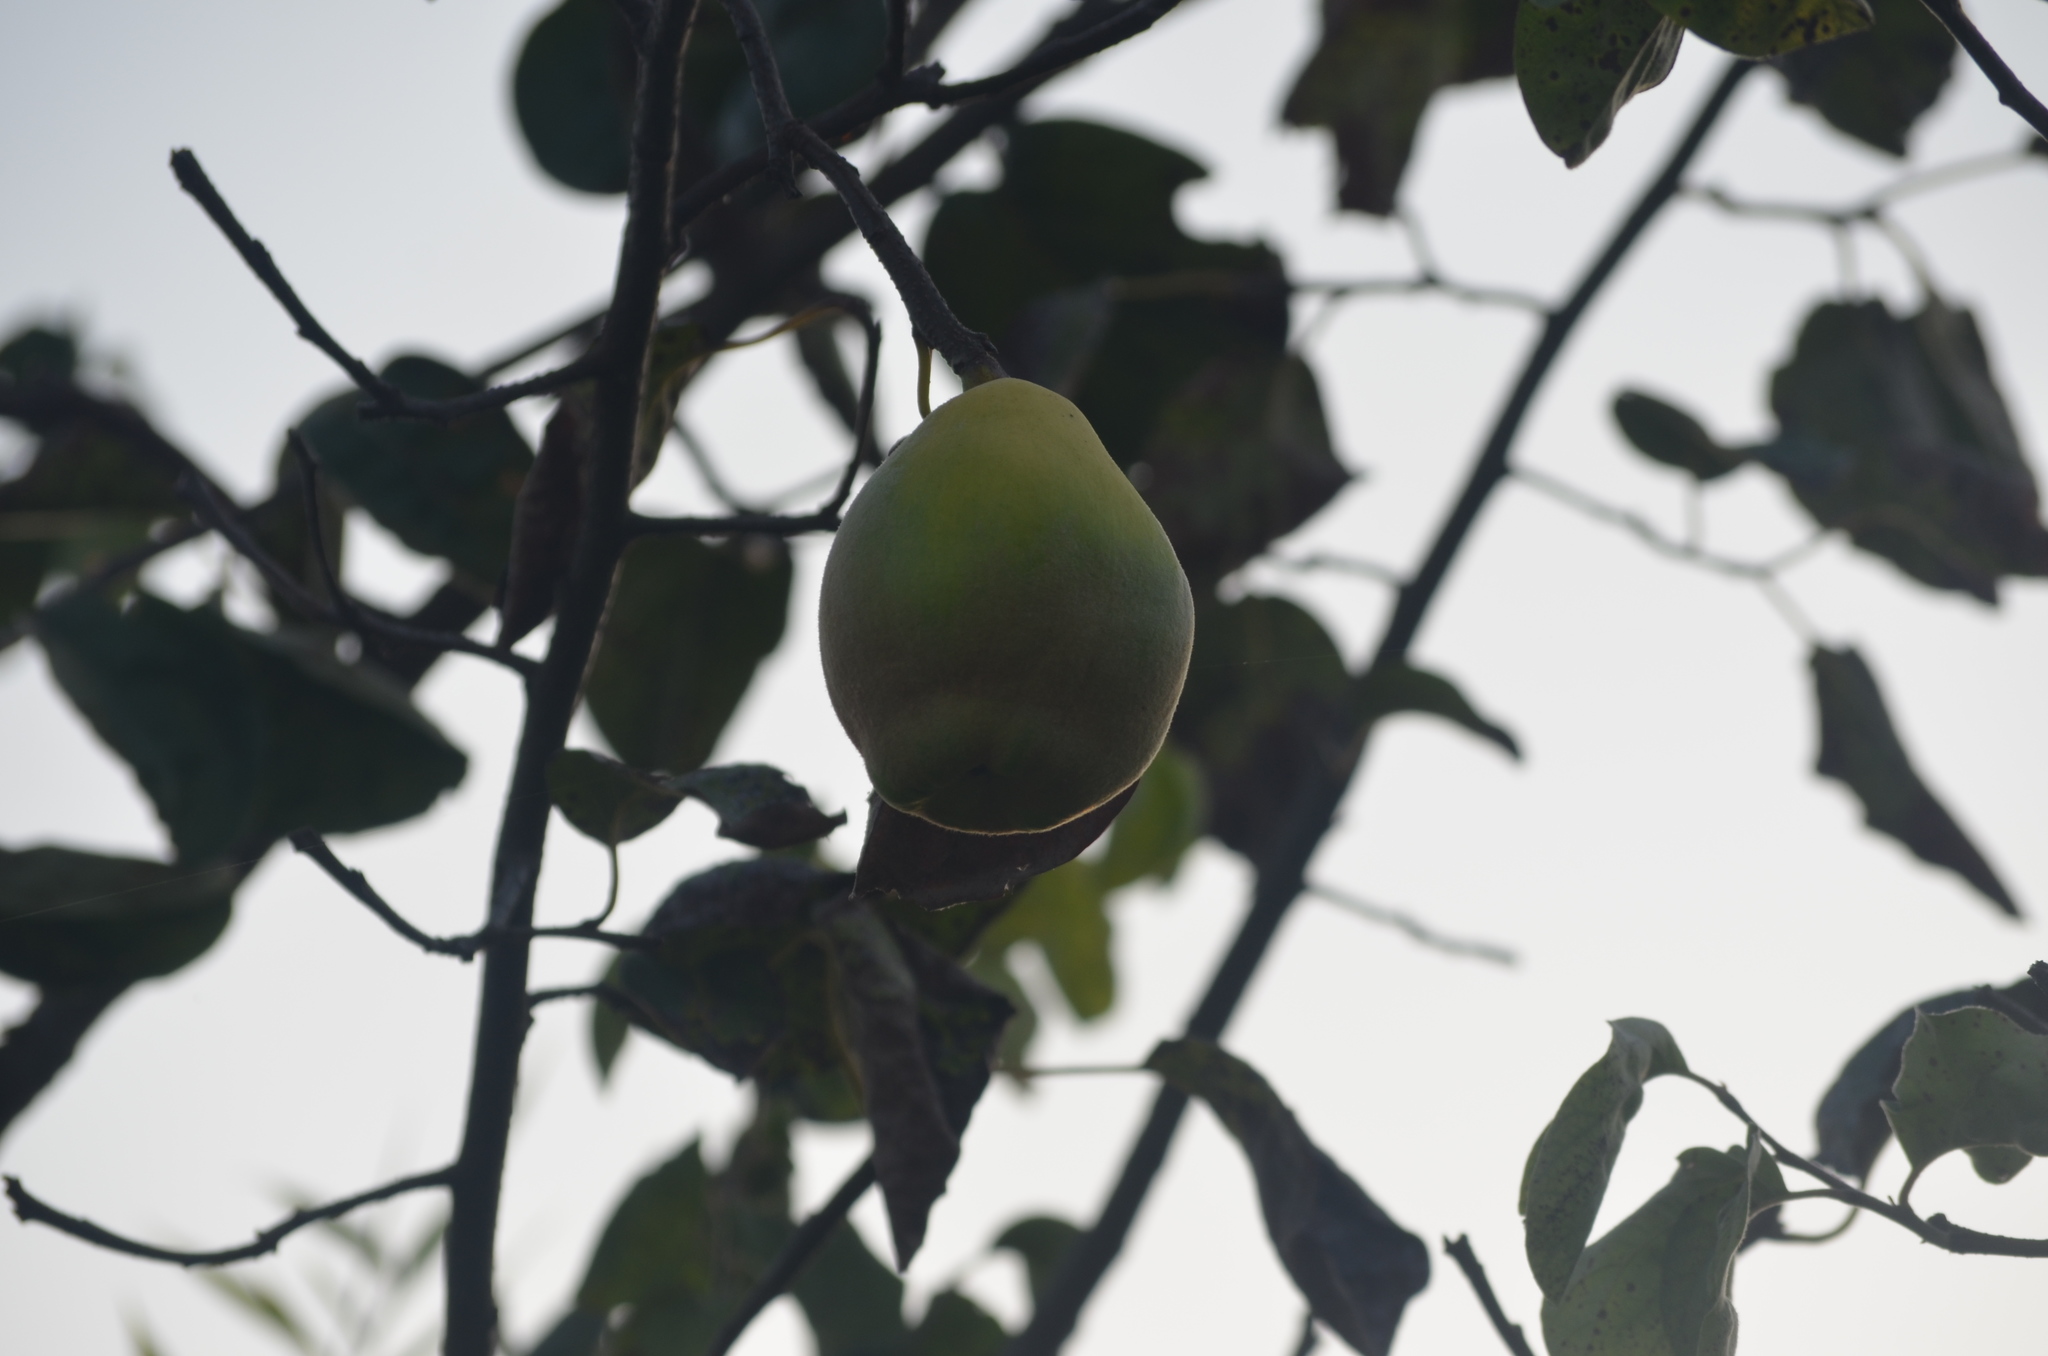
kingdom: Plantae
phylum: Tracheophyta
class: Magnoliopsida
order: Rosales
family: Rosaceae
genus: Cydonia
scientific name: Cydonia oblonga
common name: Quince
